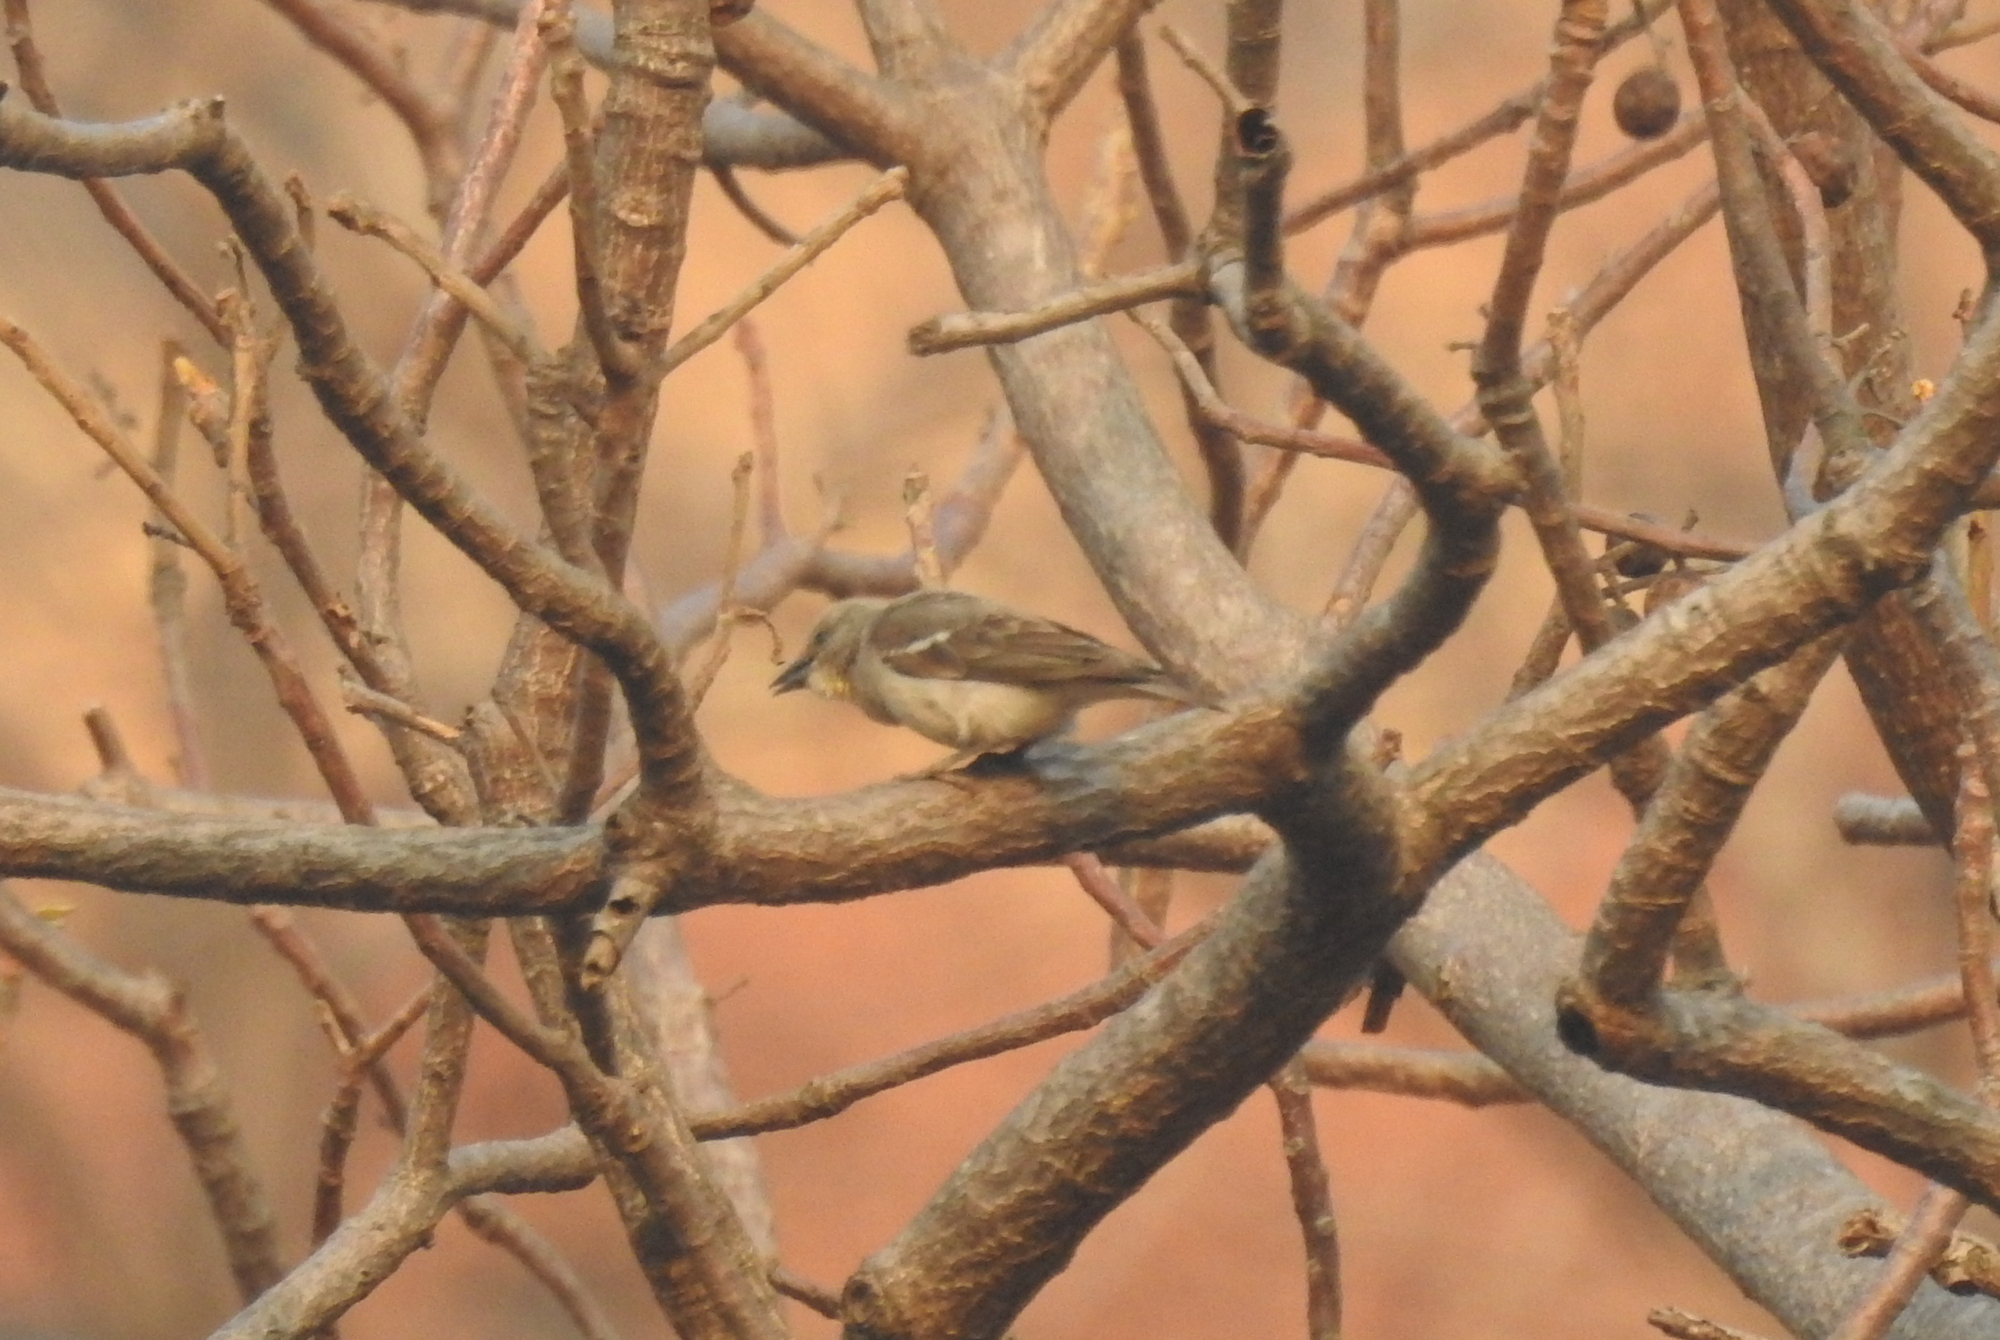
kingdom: Animalia
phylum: Chordata
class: Aves
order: Passeriformes
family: Passeridae
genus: Gymnoris
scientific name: Gymnoris xanthocollis
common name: Yellow-throated sparrow
